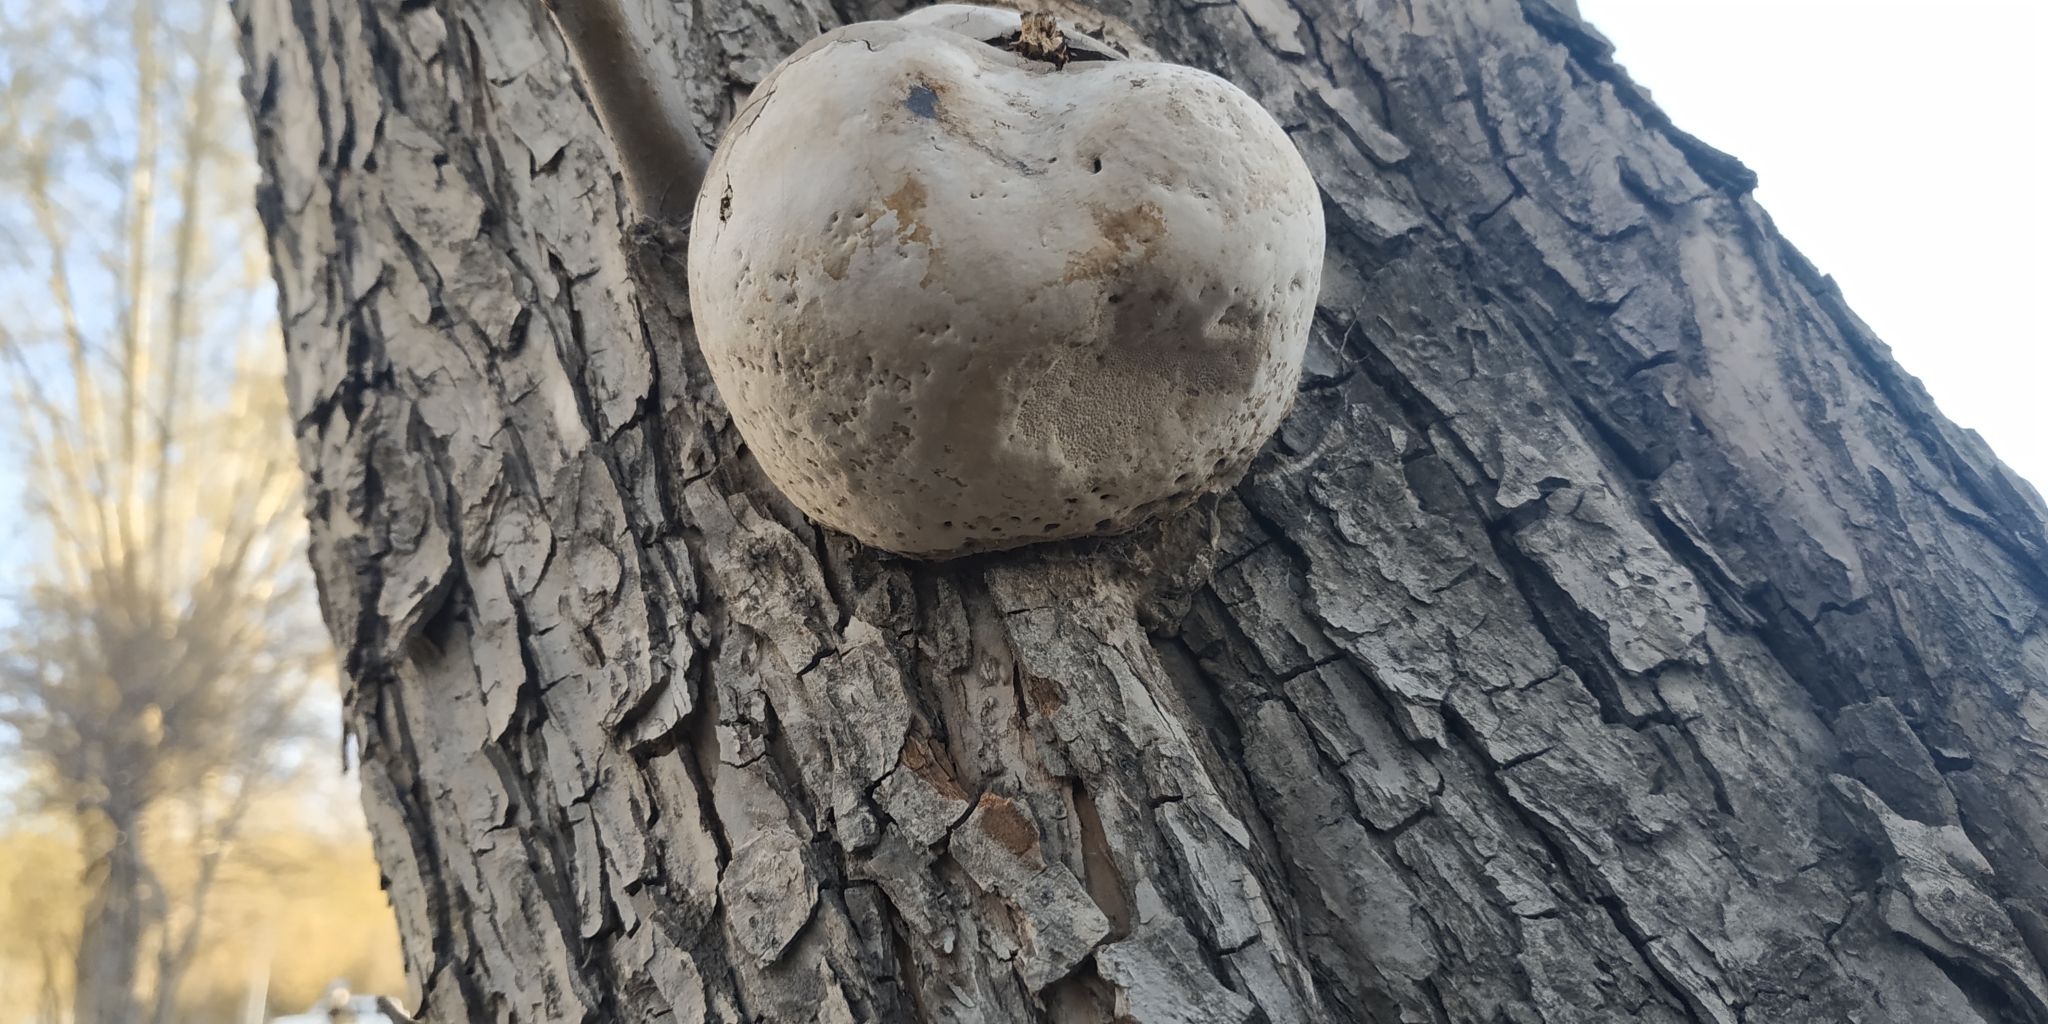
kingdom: Fungi
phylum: Basidiomycota
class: Agaricomycetes
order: Hymenochaetales
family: Hymenochaetaceae
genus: Phellinus
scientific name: Phellinus igniarius
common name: Willow bracket
